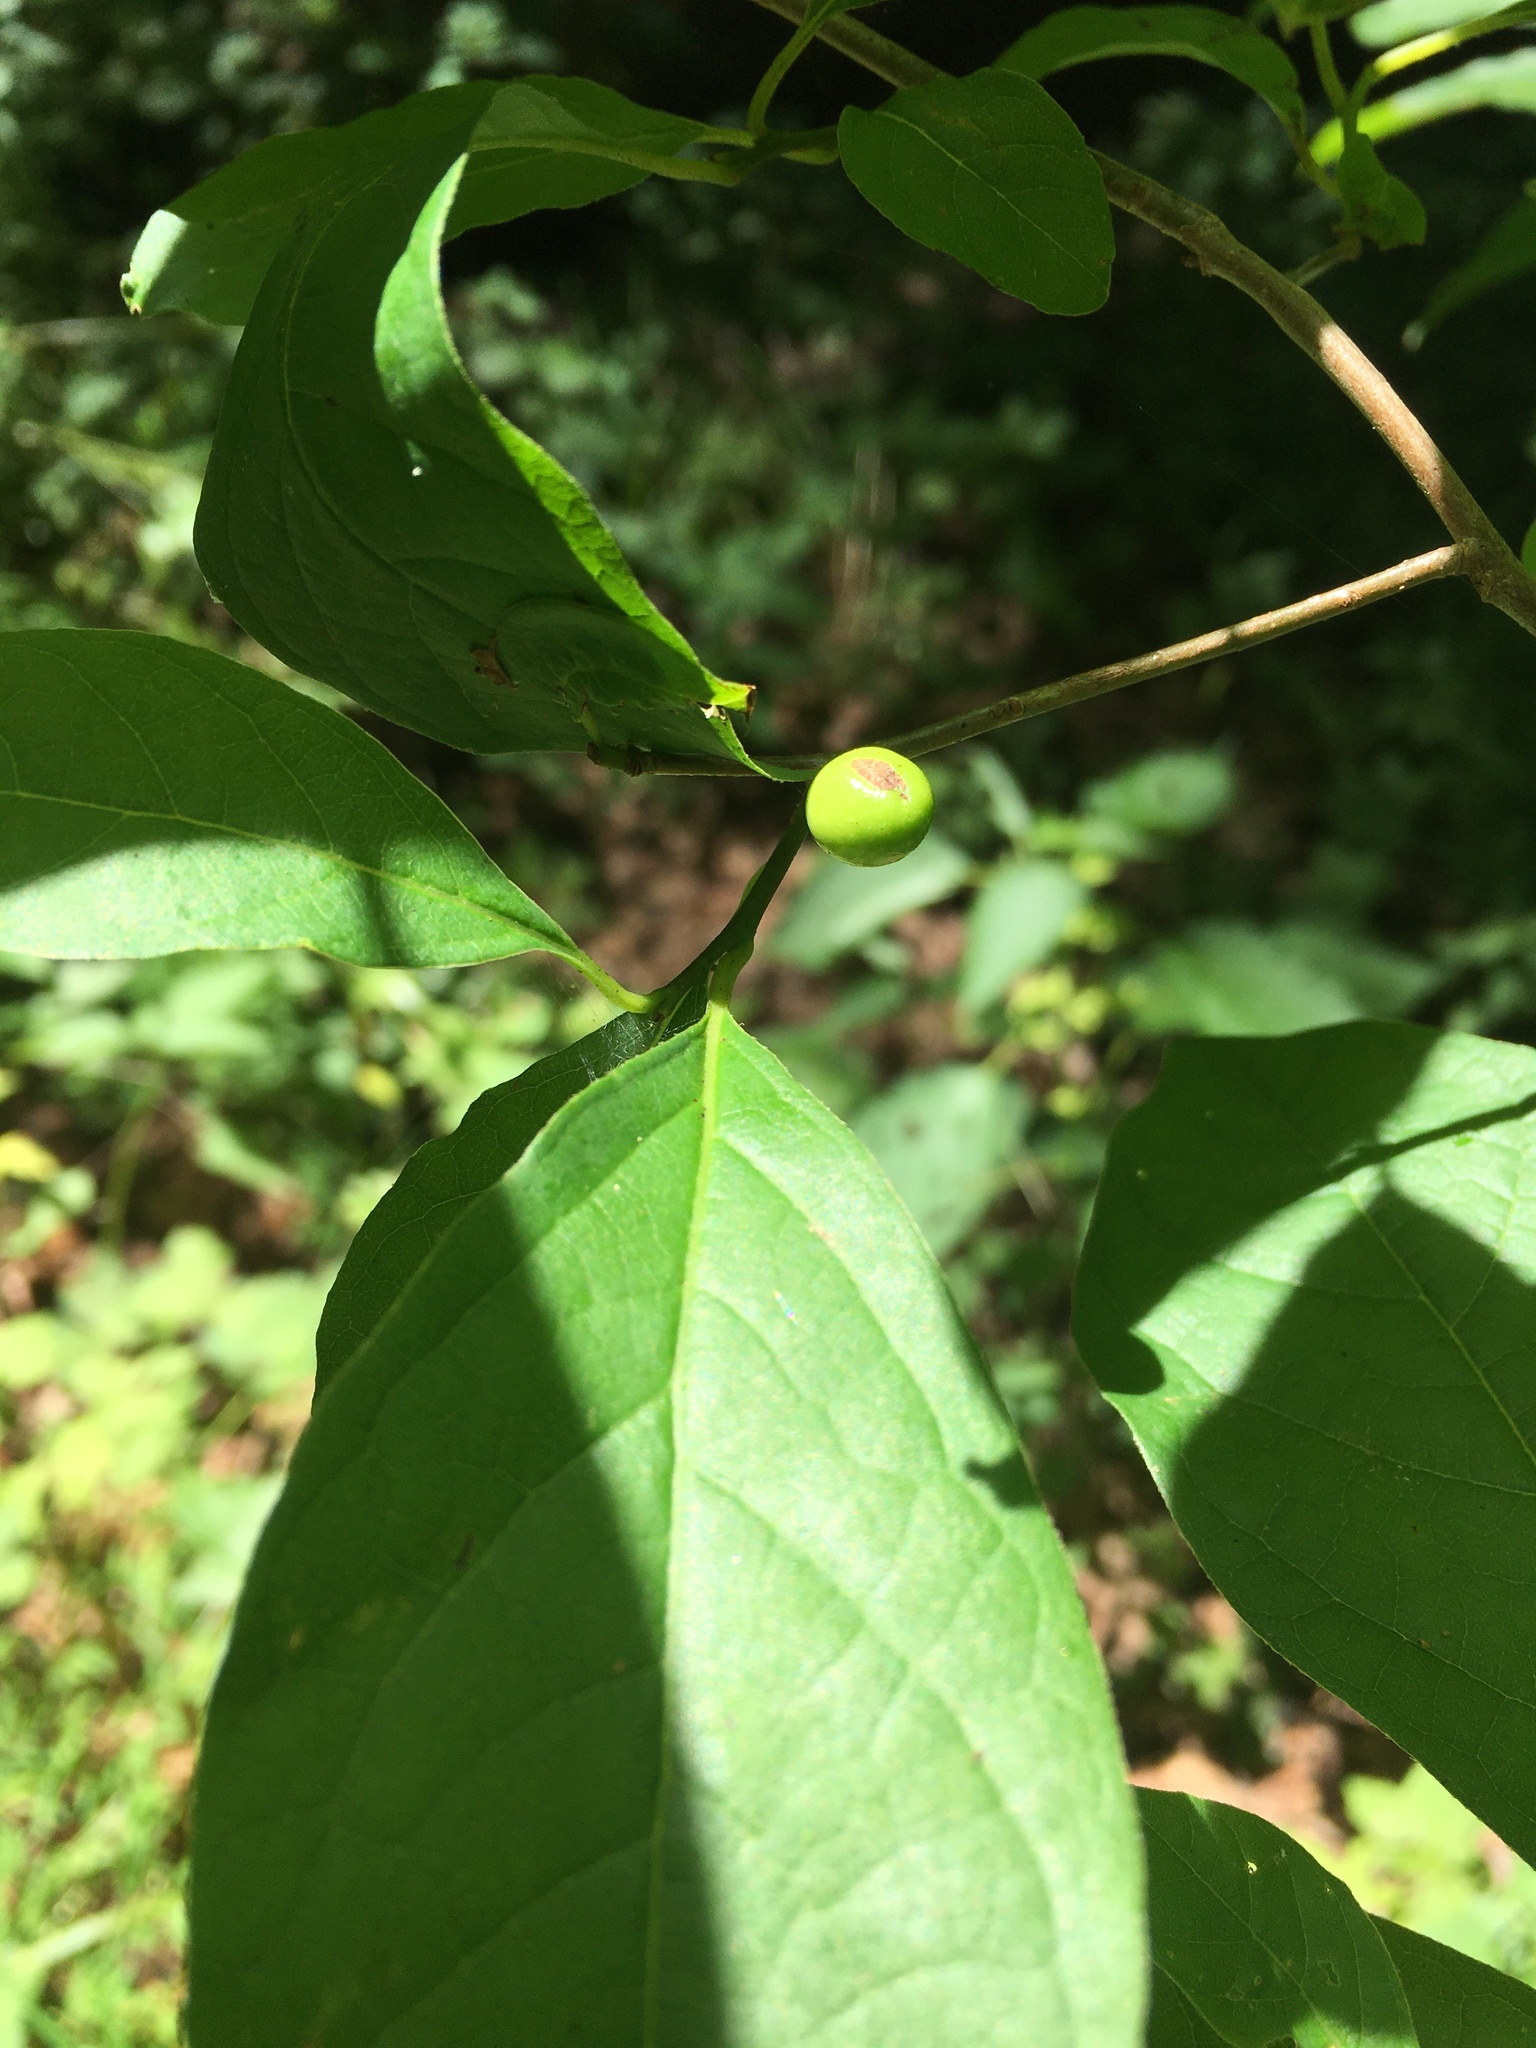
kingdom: Plantae
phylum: Tracheophyta
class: Magnoliopsida
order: Laurales
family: Lauraceae
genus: Lindera
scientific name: Lindera benzoin
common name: Spicebush
